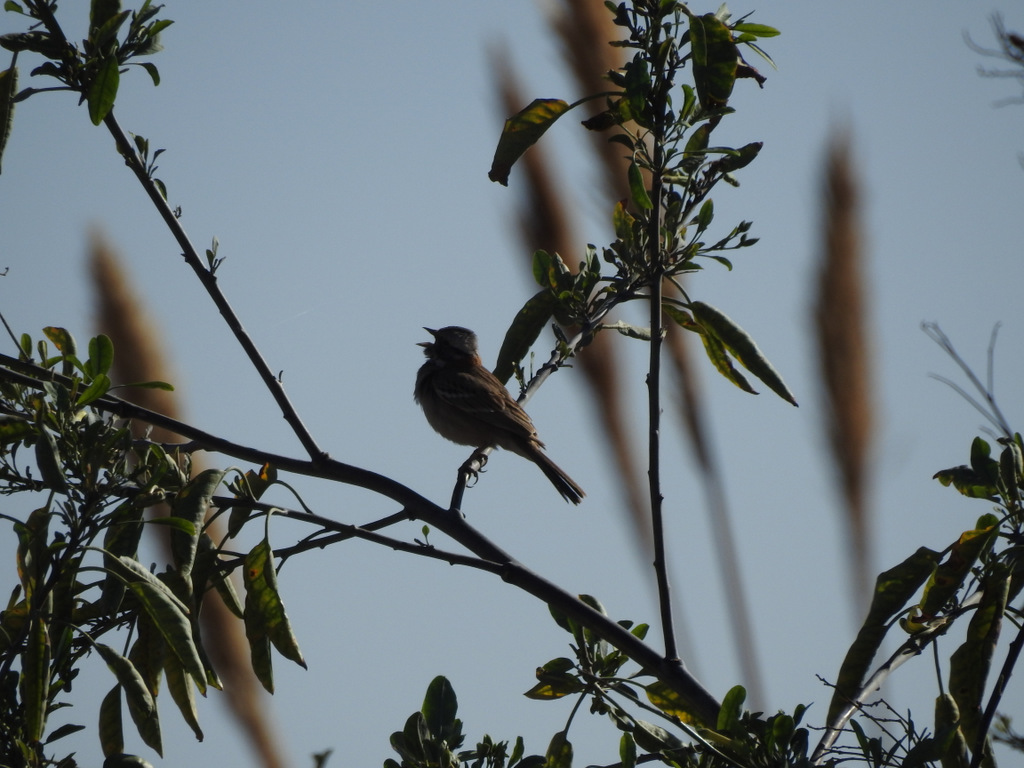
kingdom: Animalia
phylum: Chordata
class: Aves
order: Passeriformes
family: Passerellidae
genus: Zonotrichia
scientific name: Zonotrichia capensis
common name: Rufous-collared sparrow
